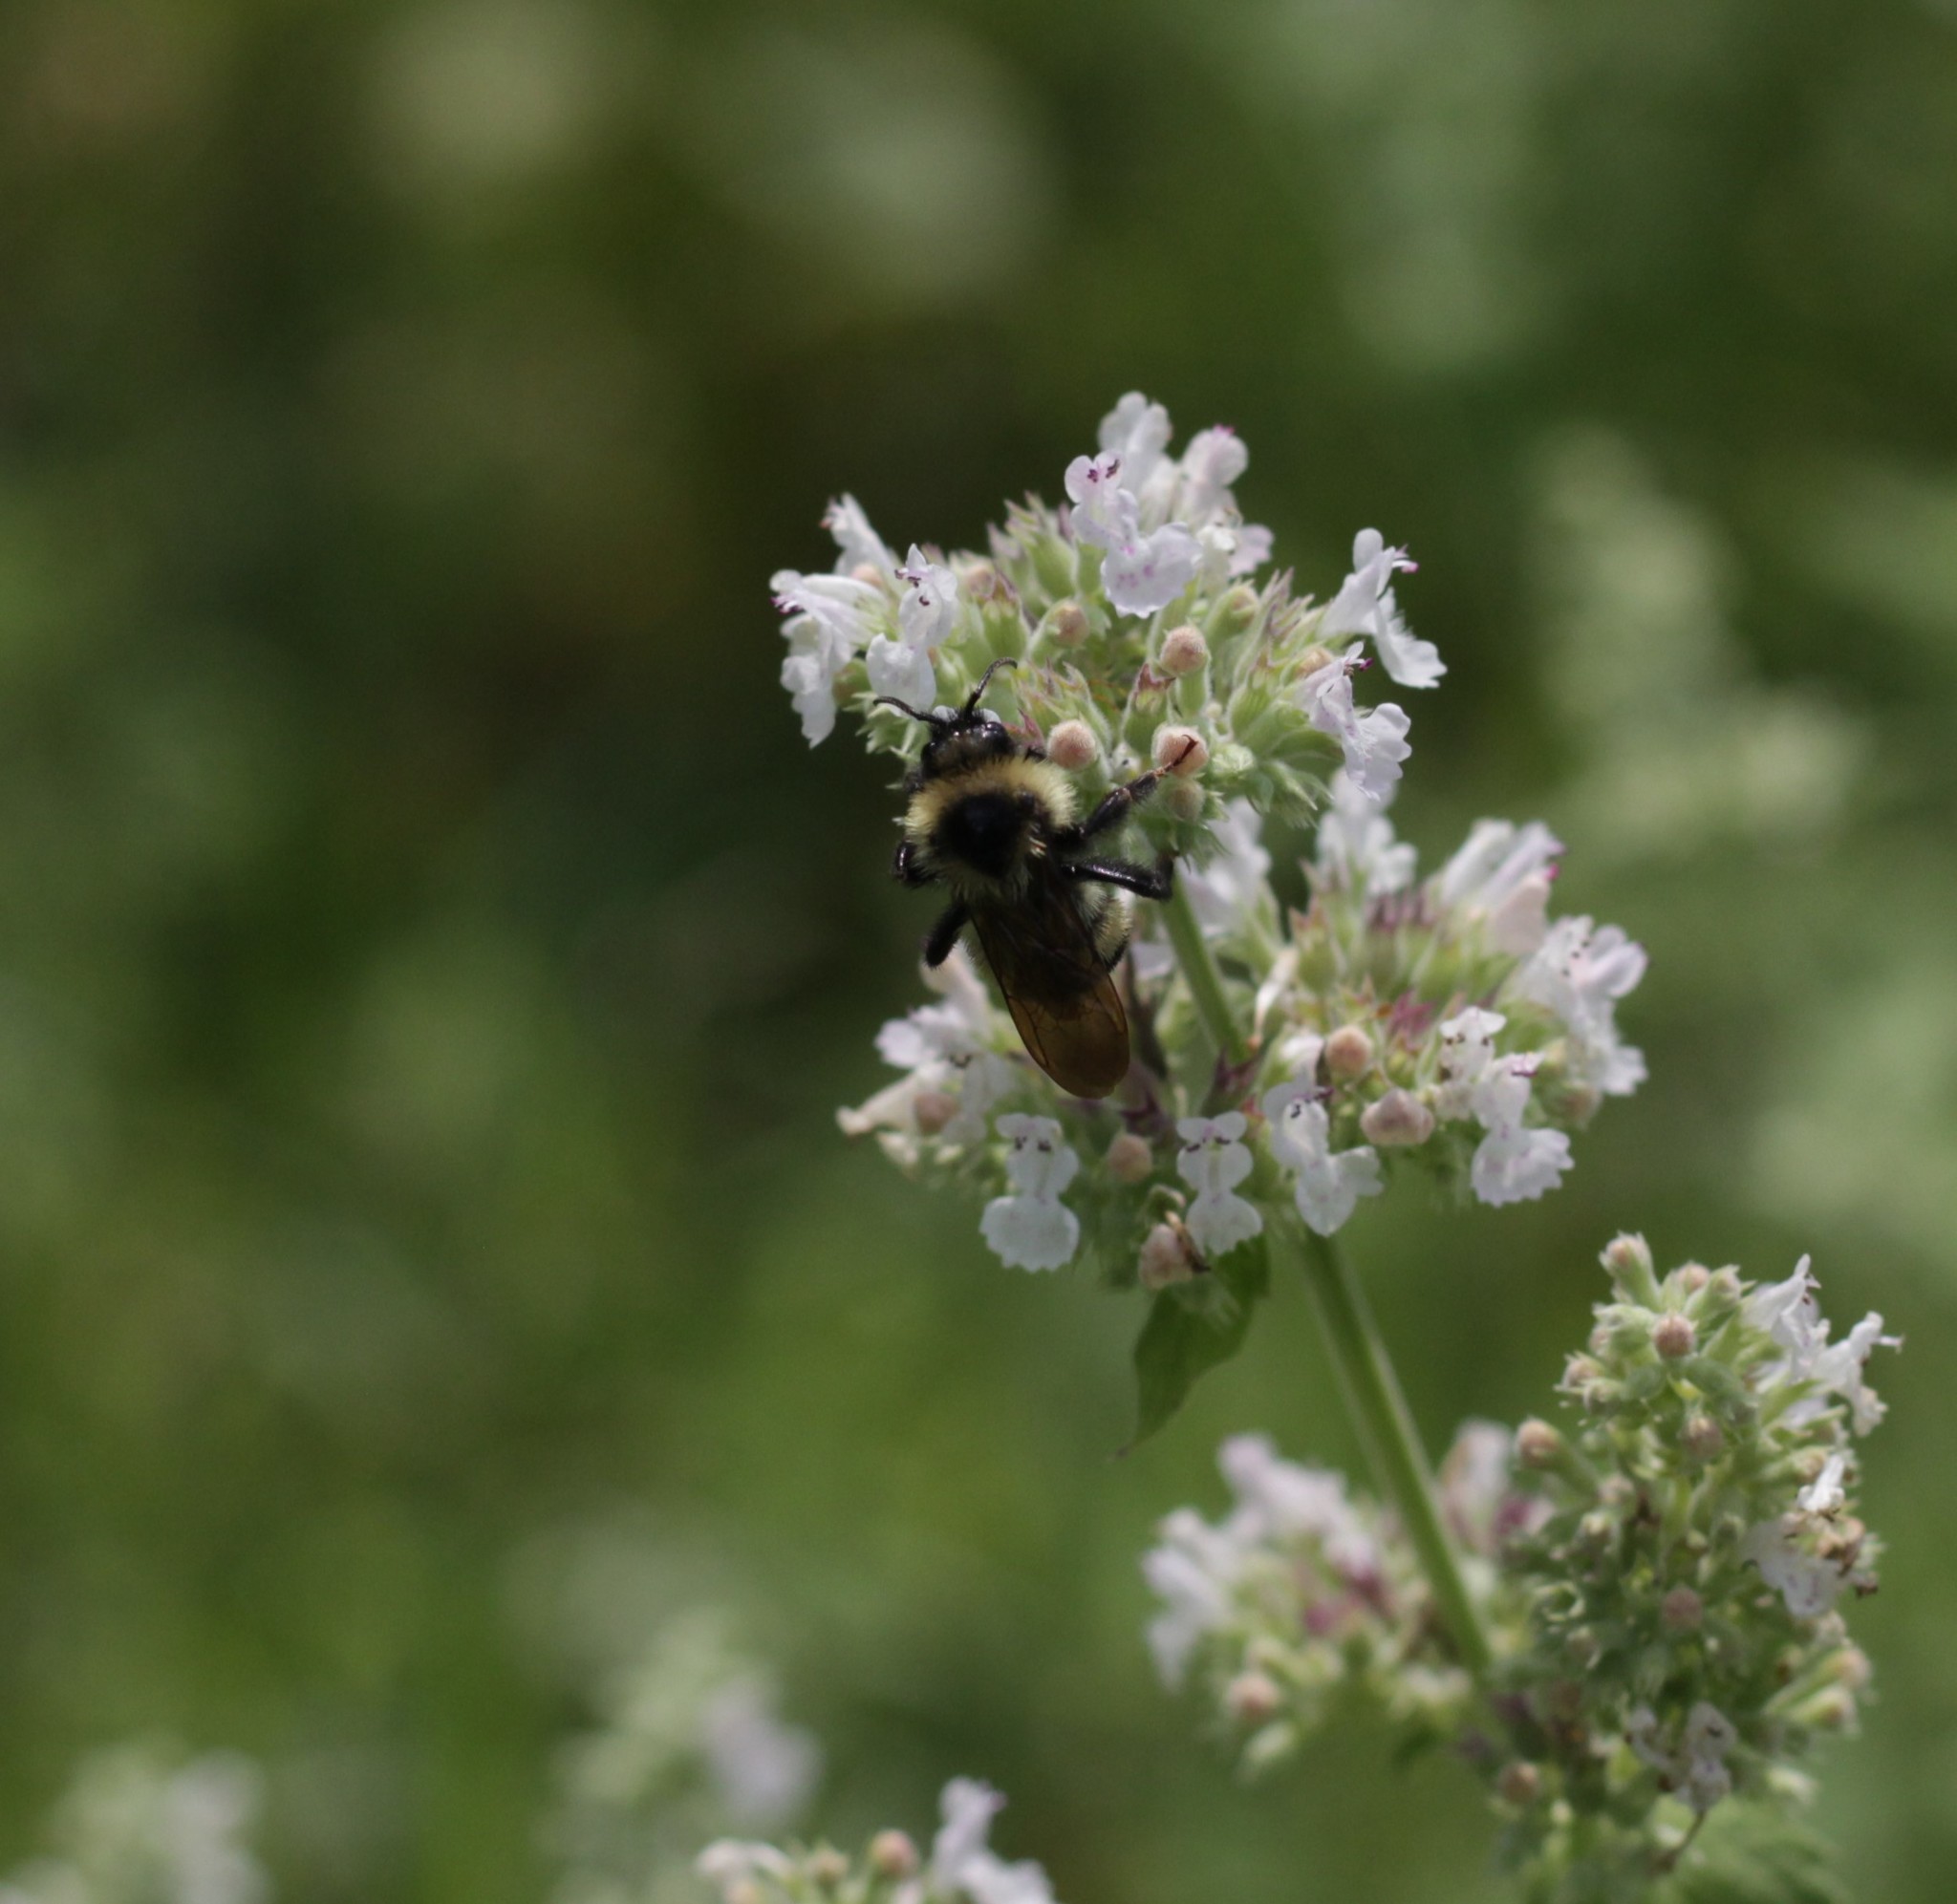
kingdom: Animalia
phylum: Arthropoda
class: Insecta
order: Hymenoptera
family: Apidae
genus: Bombus
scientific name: Bombus citrinus
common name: Lemon cuckoo bumble bee
